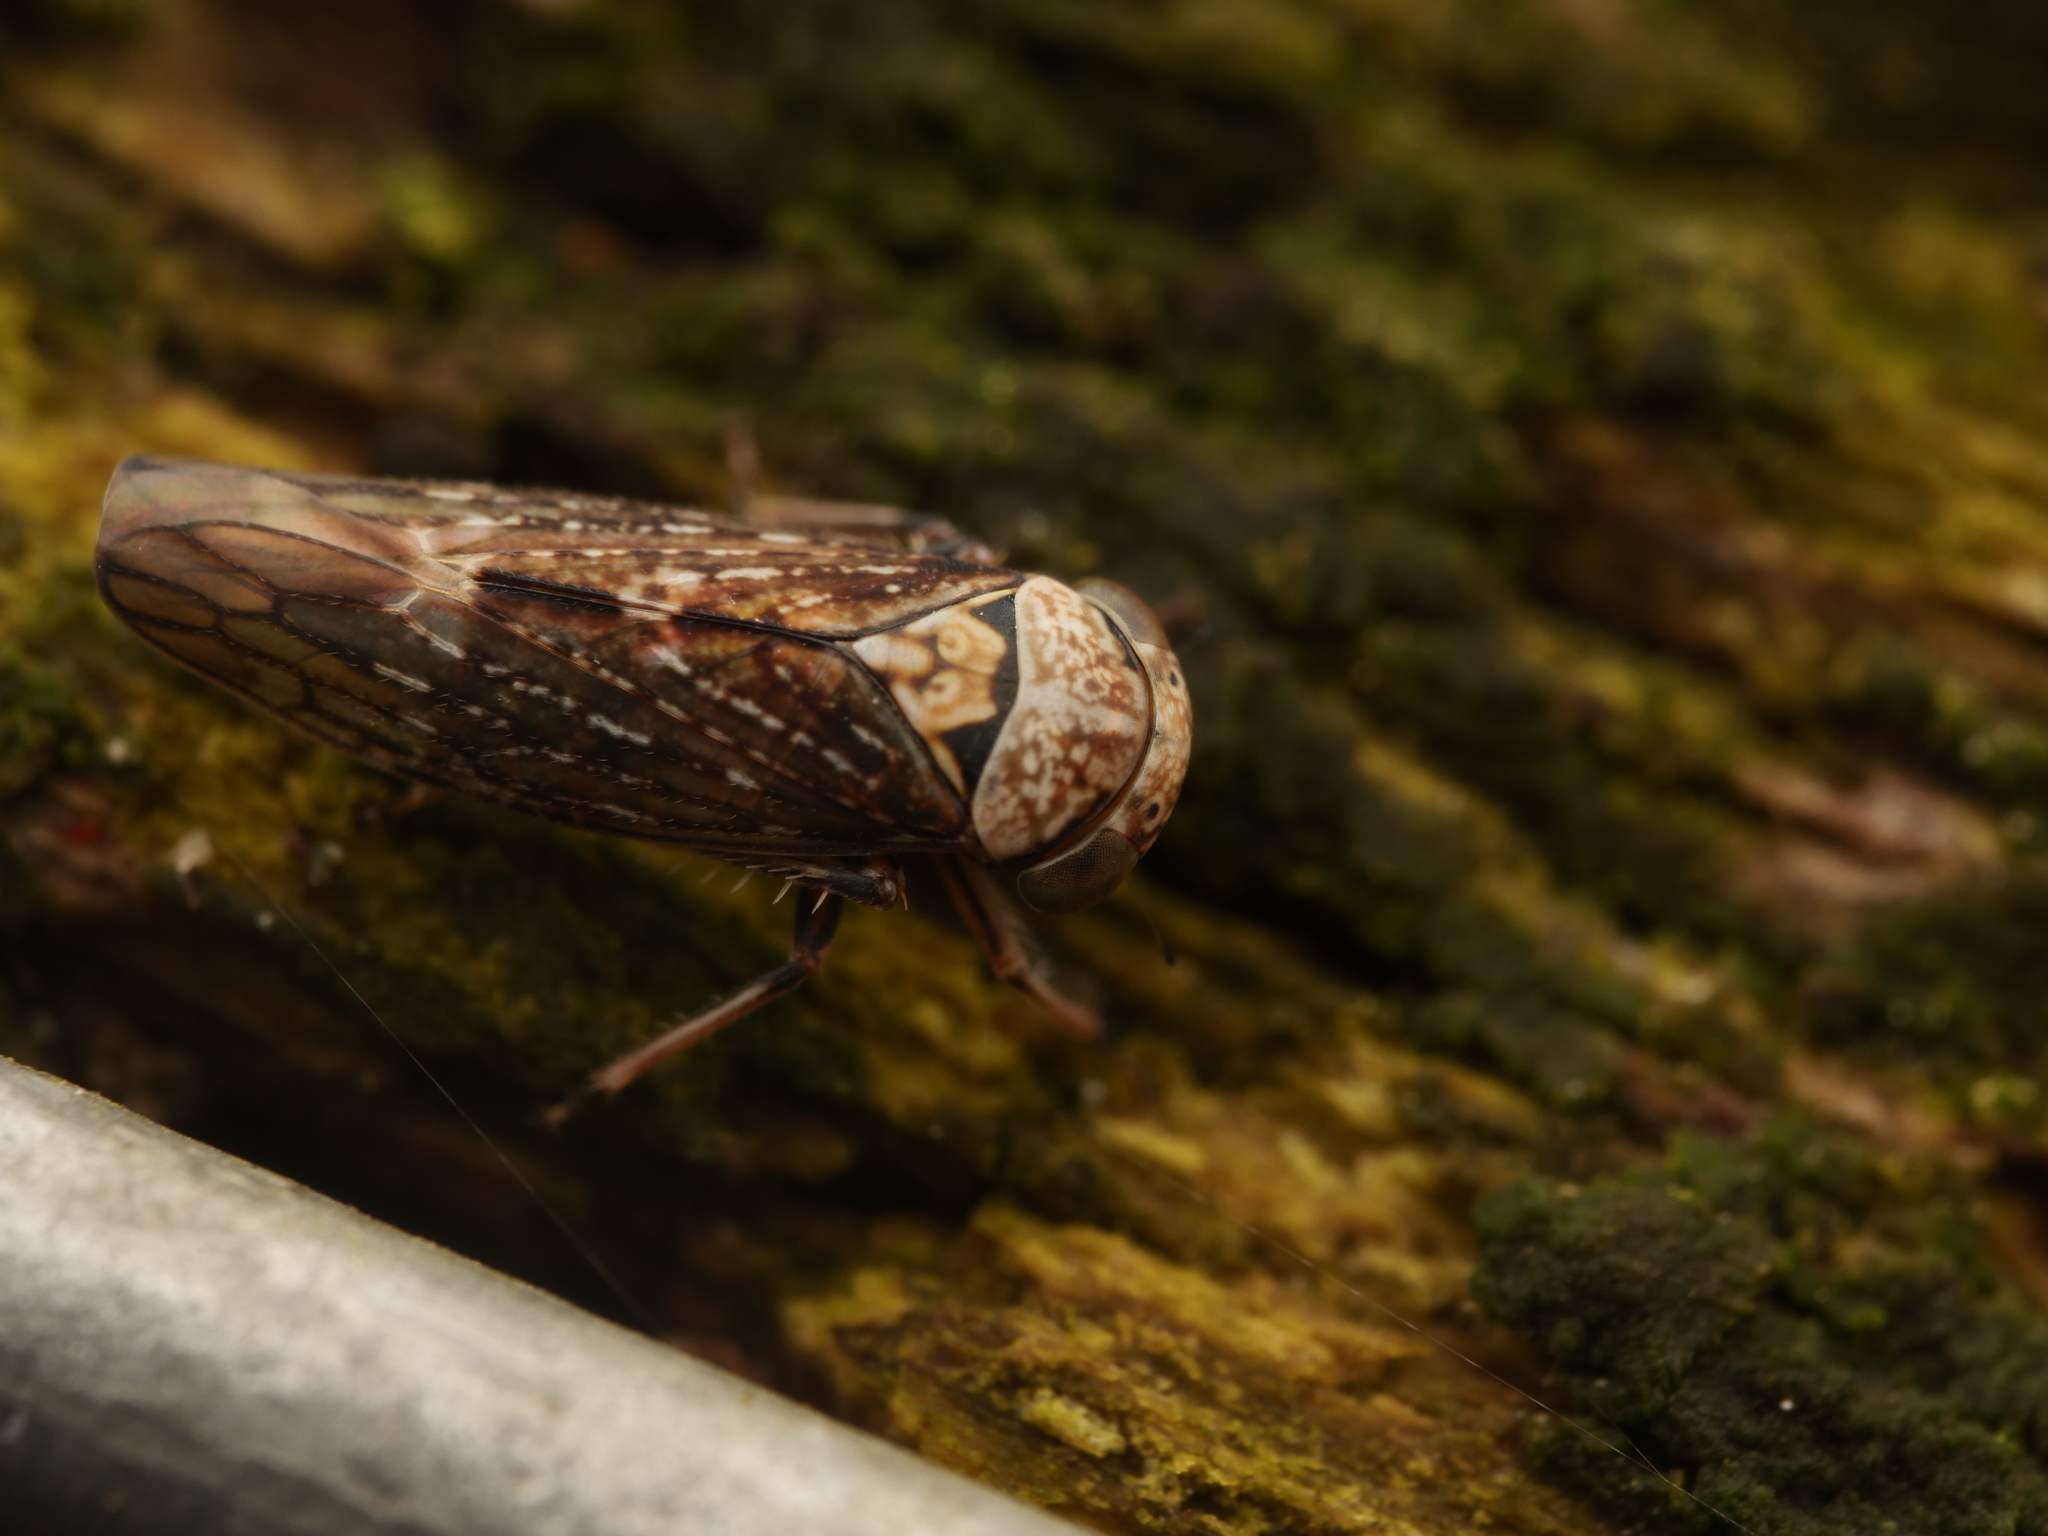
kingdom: Animalia
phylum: Arthropoda
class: Insecta
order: Hemiptera
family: Cicadellidae
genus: Acericerus
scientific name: Acericerus ribauti
